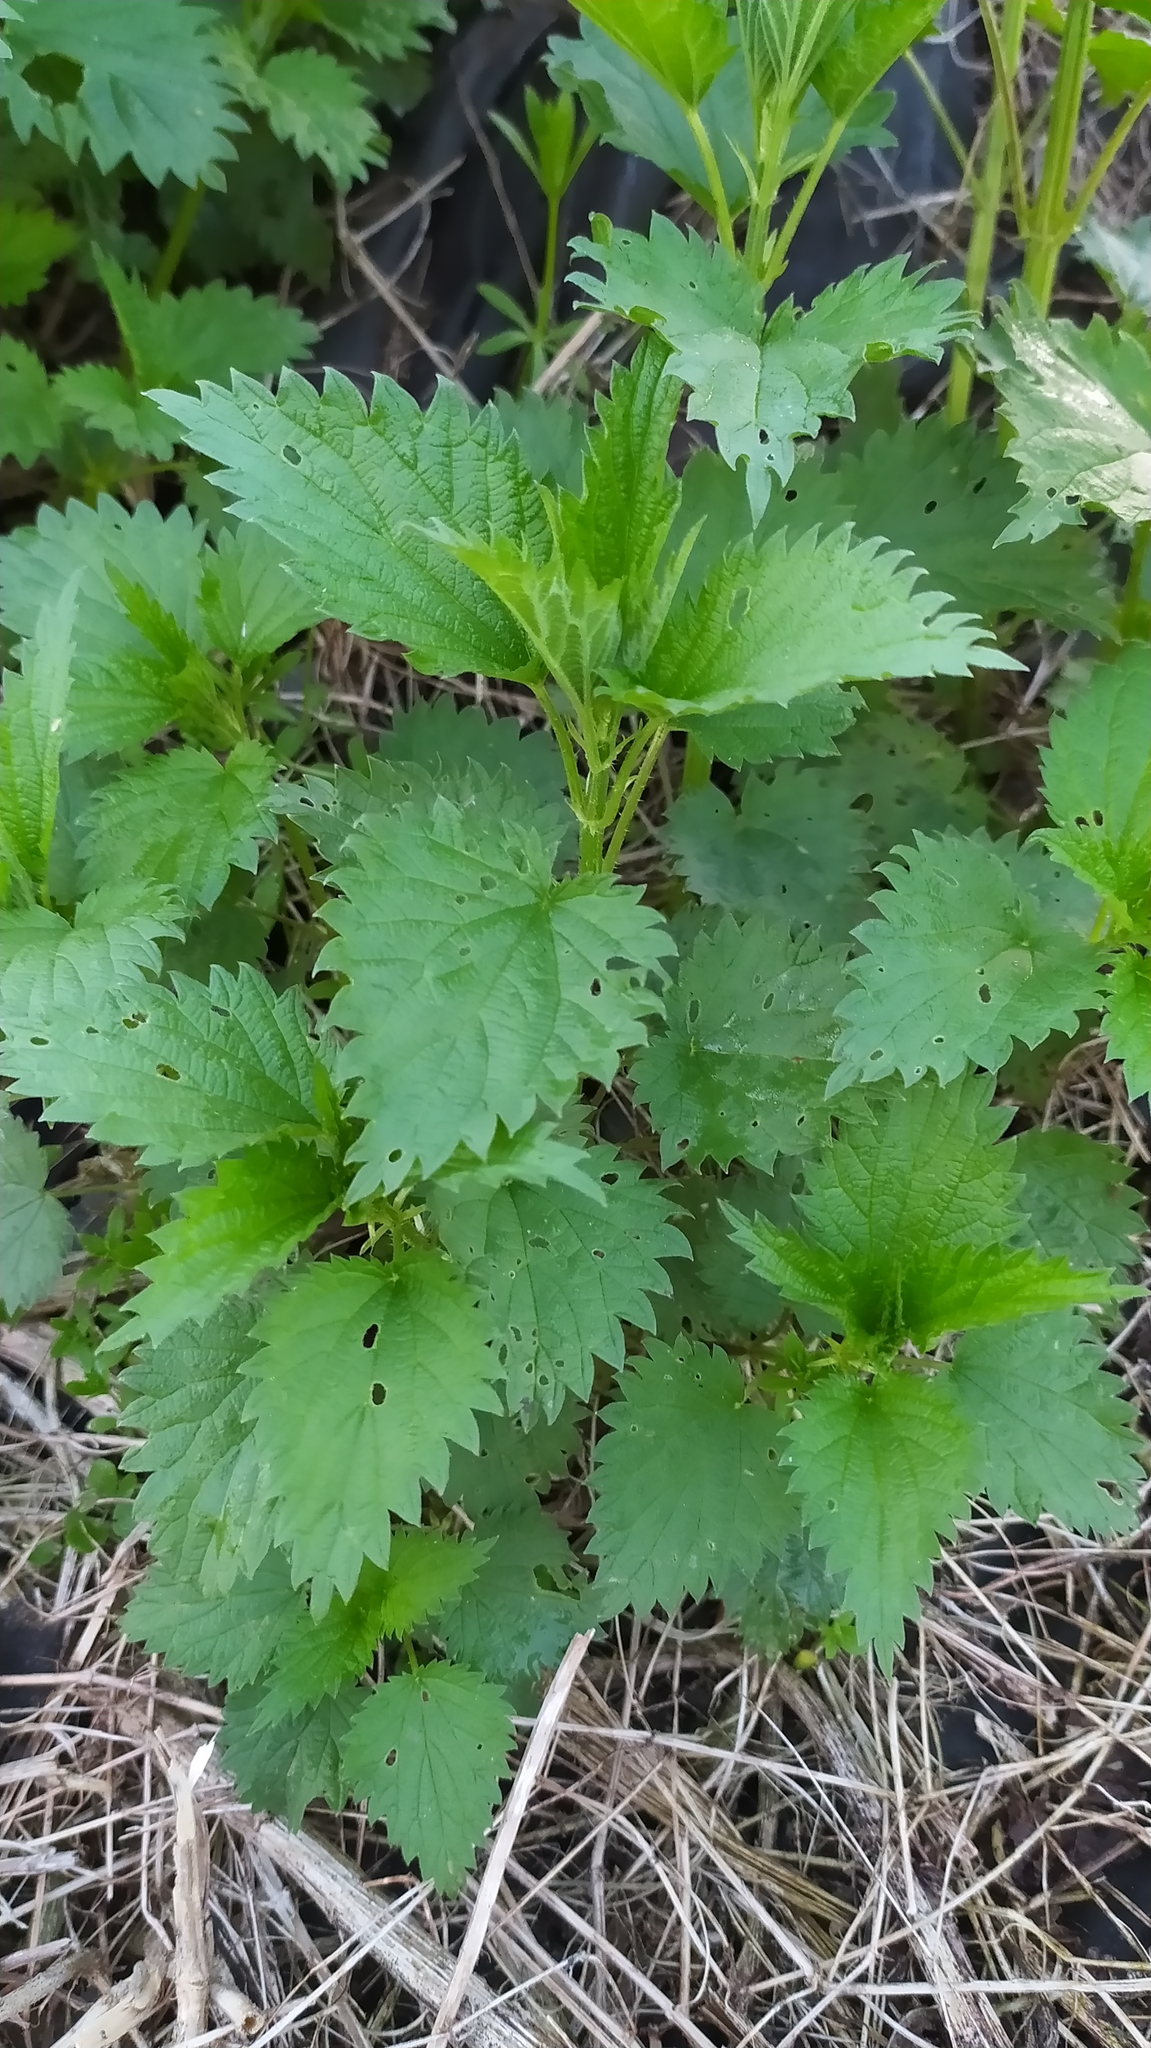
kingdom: Plantae
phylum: Tracheophyta
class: Magnoliopsida
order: Rosales
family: Urticaceae
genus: Urtica
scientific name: Urtica dioica
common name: Common nettle
